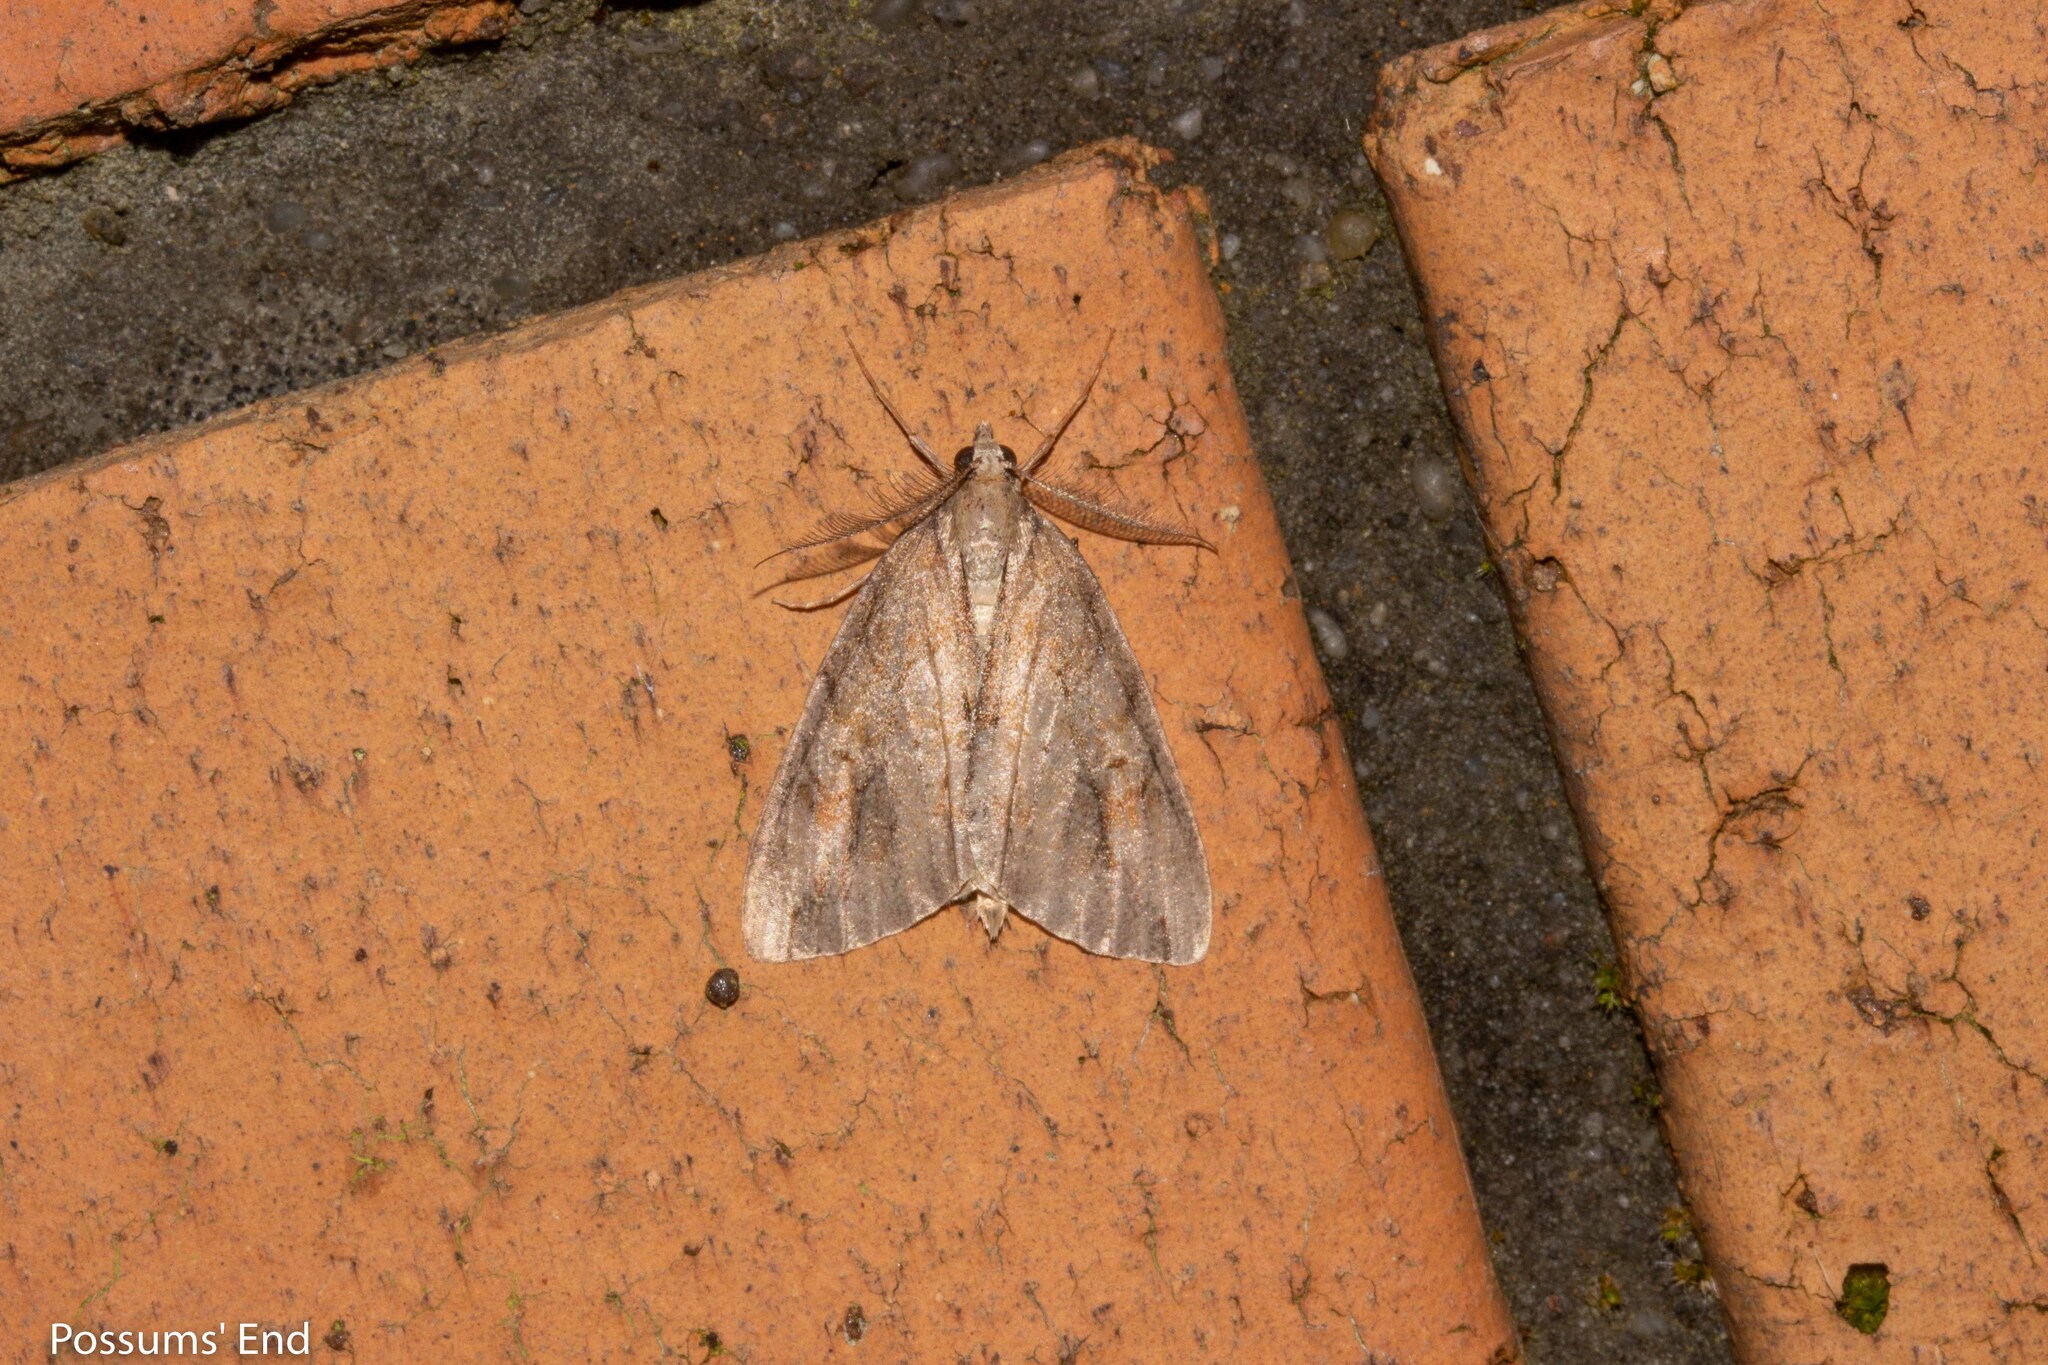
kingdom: Animalia
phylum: Arthropoda
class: Insecta
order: Lepidoptera
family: Geometridae
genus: Pseudocoremia
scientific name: Pseudocoremia lupinata
